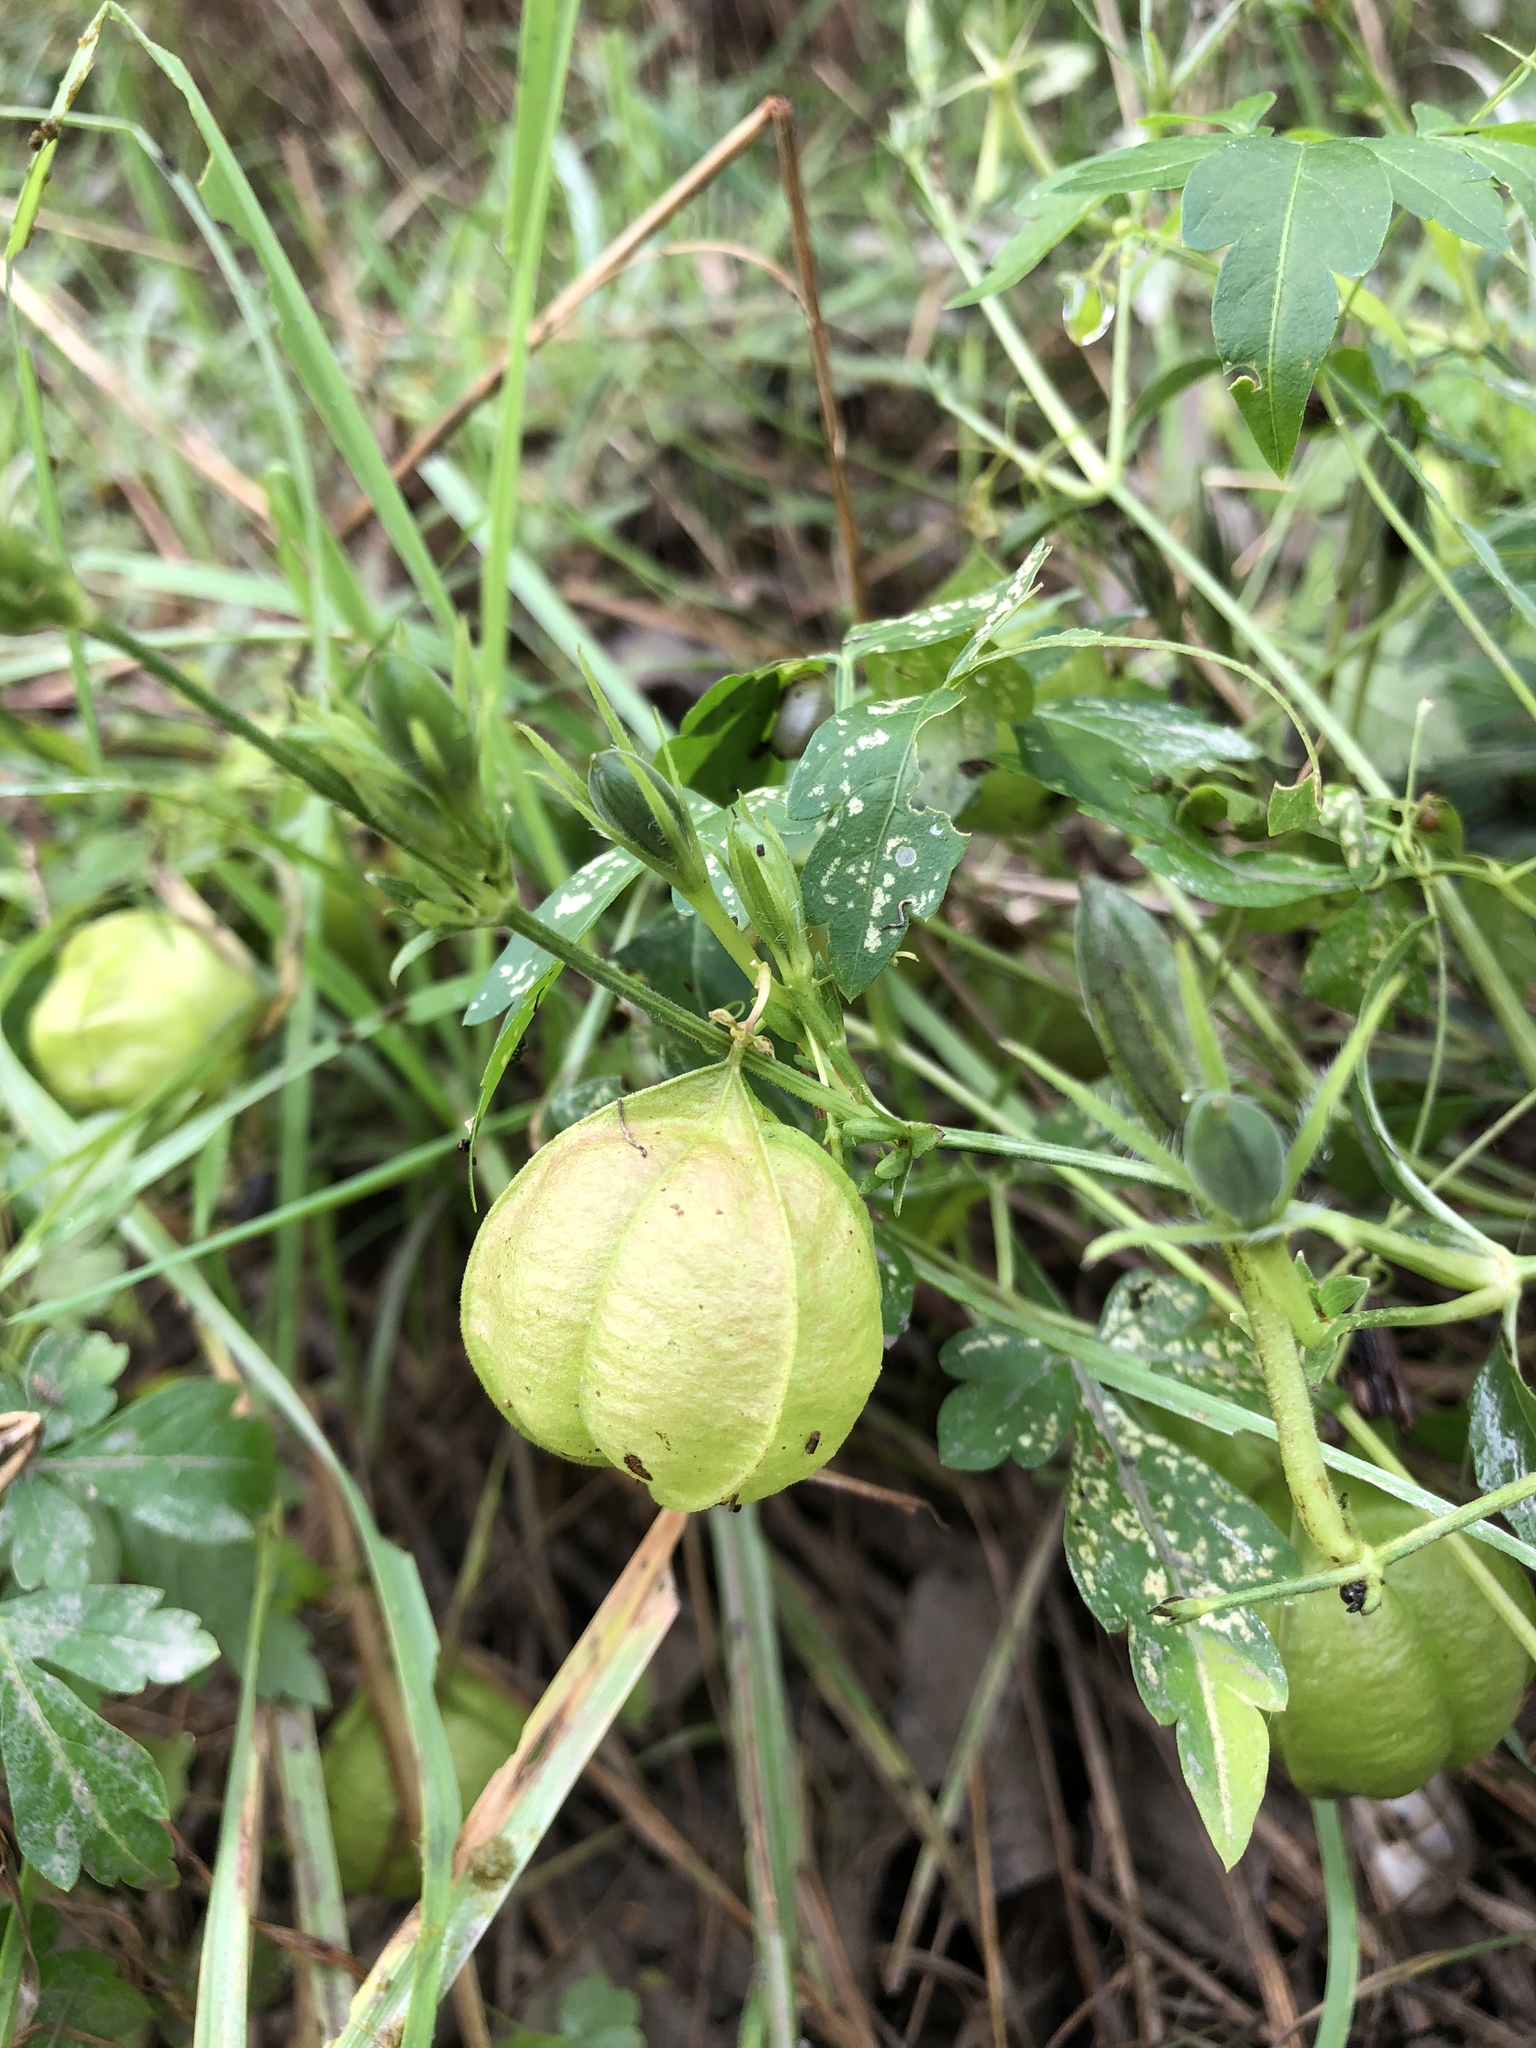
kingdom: Plantae
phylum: Tracheophyta
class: Magnoliopsida
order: Sapindales
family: Sapindaceae
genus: Cardiospermum
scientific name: Cardiospermum halicacabum
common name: Balloon vine
